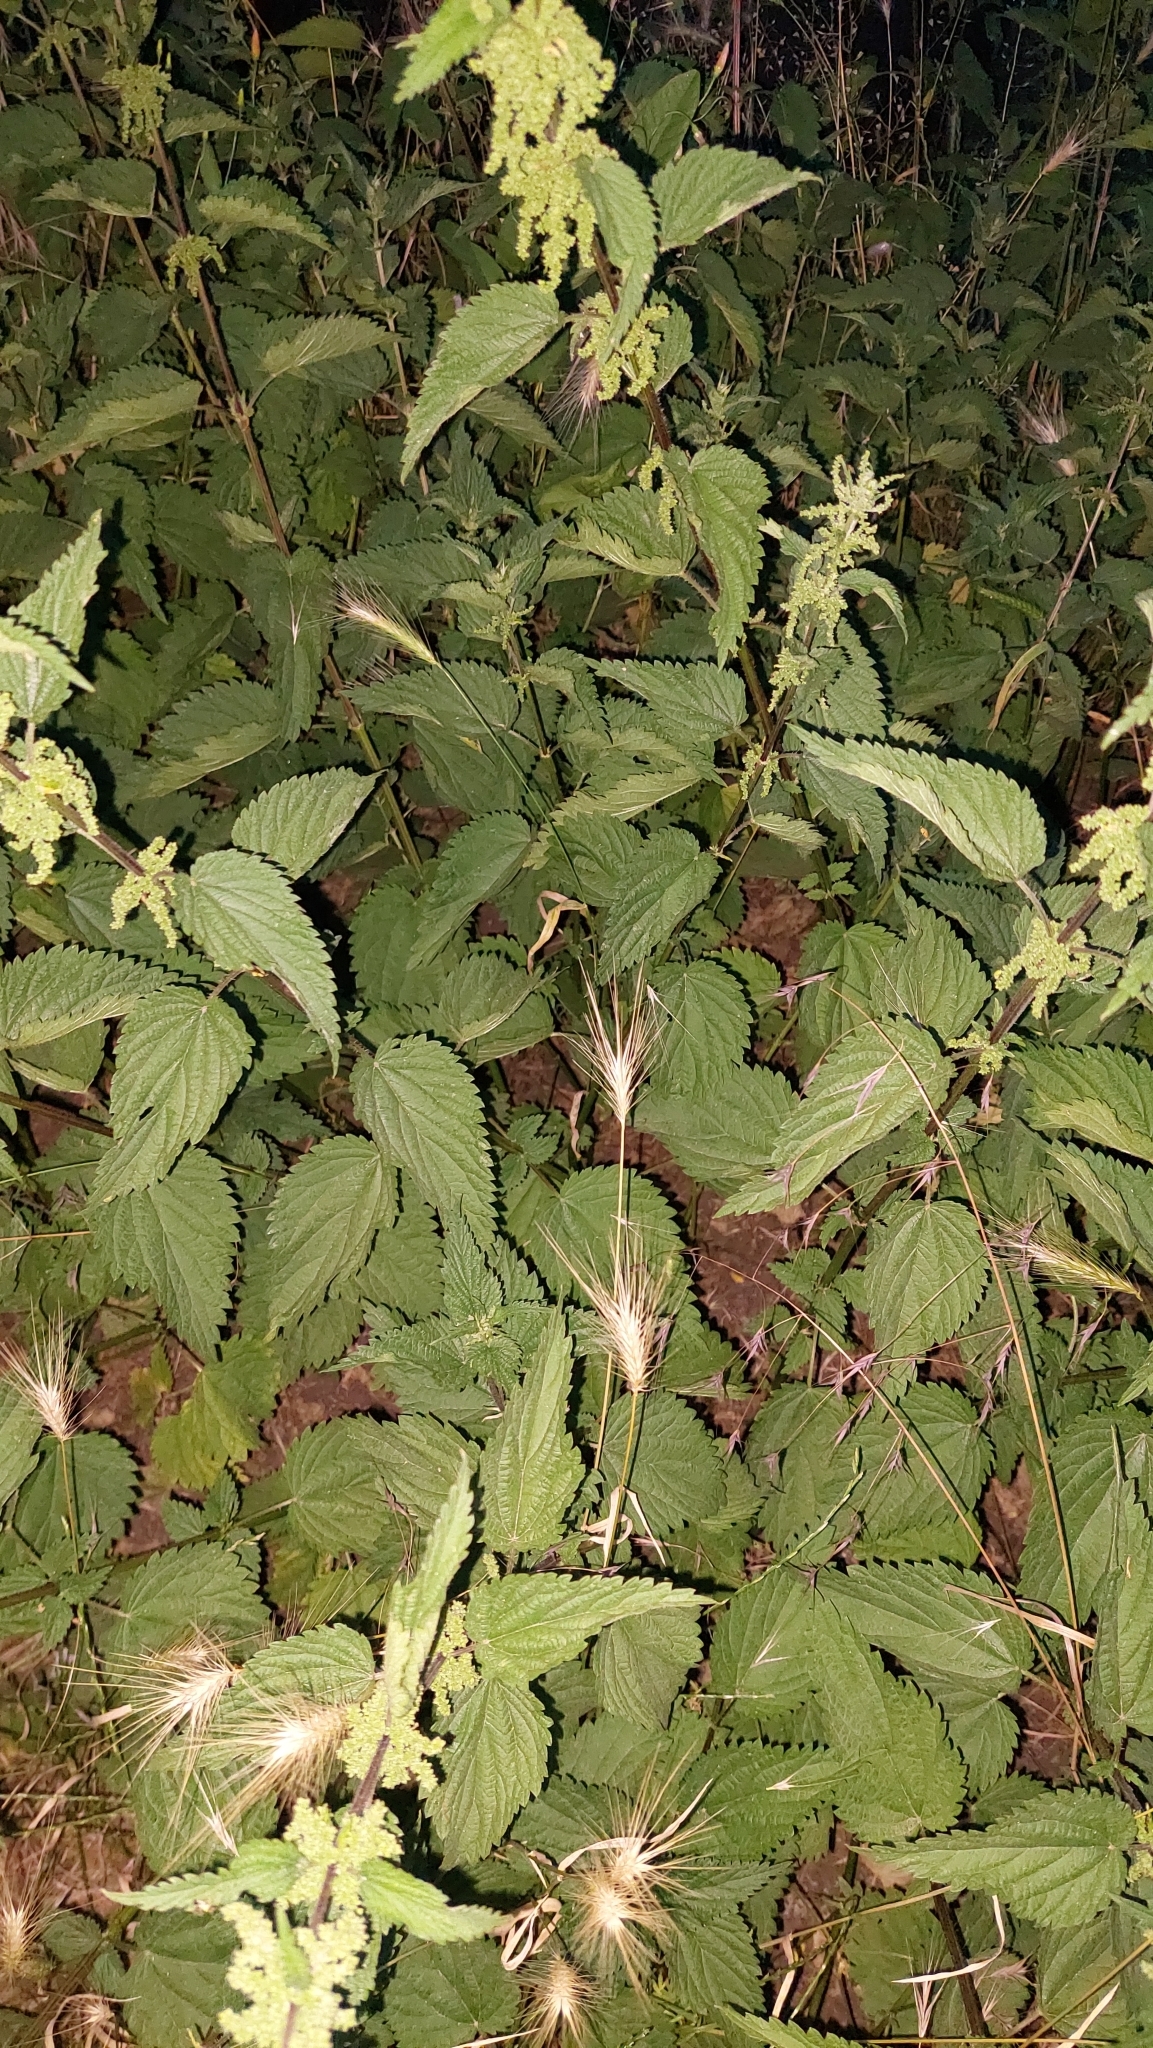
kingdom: Plantae
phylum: Tracheophyta
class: Magnoliopsida
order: Rosales
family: Urticaceae
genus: Urtica
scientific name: Urtica dioica
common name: Common nettle
